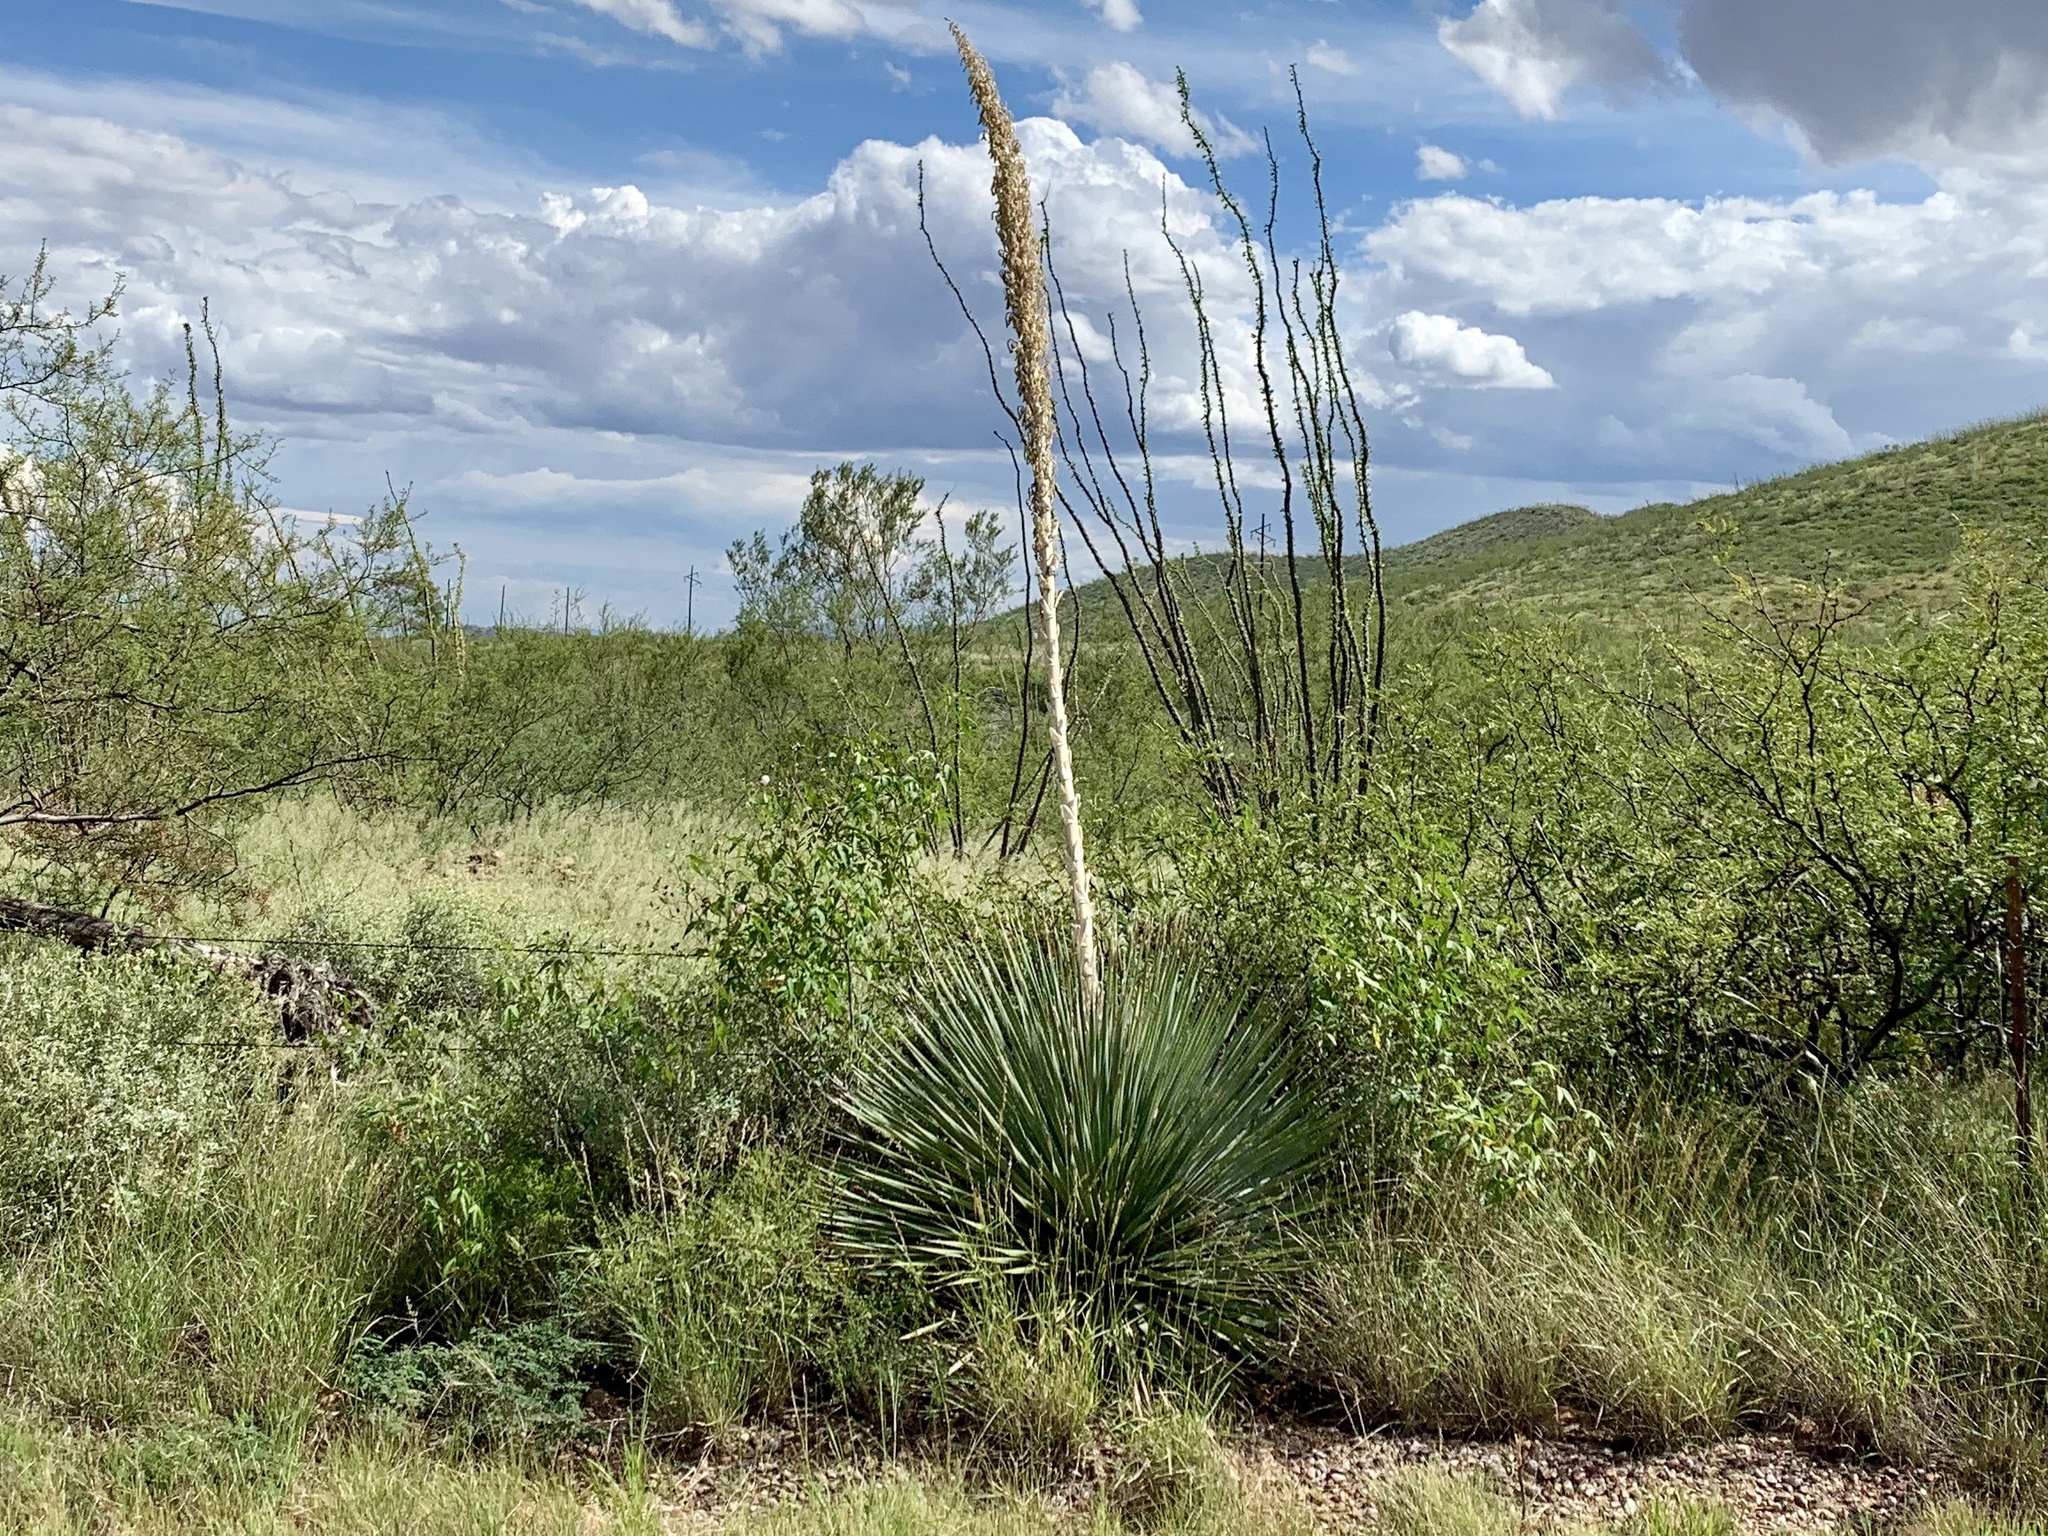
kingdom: Plantae
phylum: Tracheophyta
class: Liliopsida
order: Asparagales
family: Asparagaceae
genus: Dasylirion
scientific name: Dasylirion wheeleri
